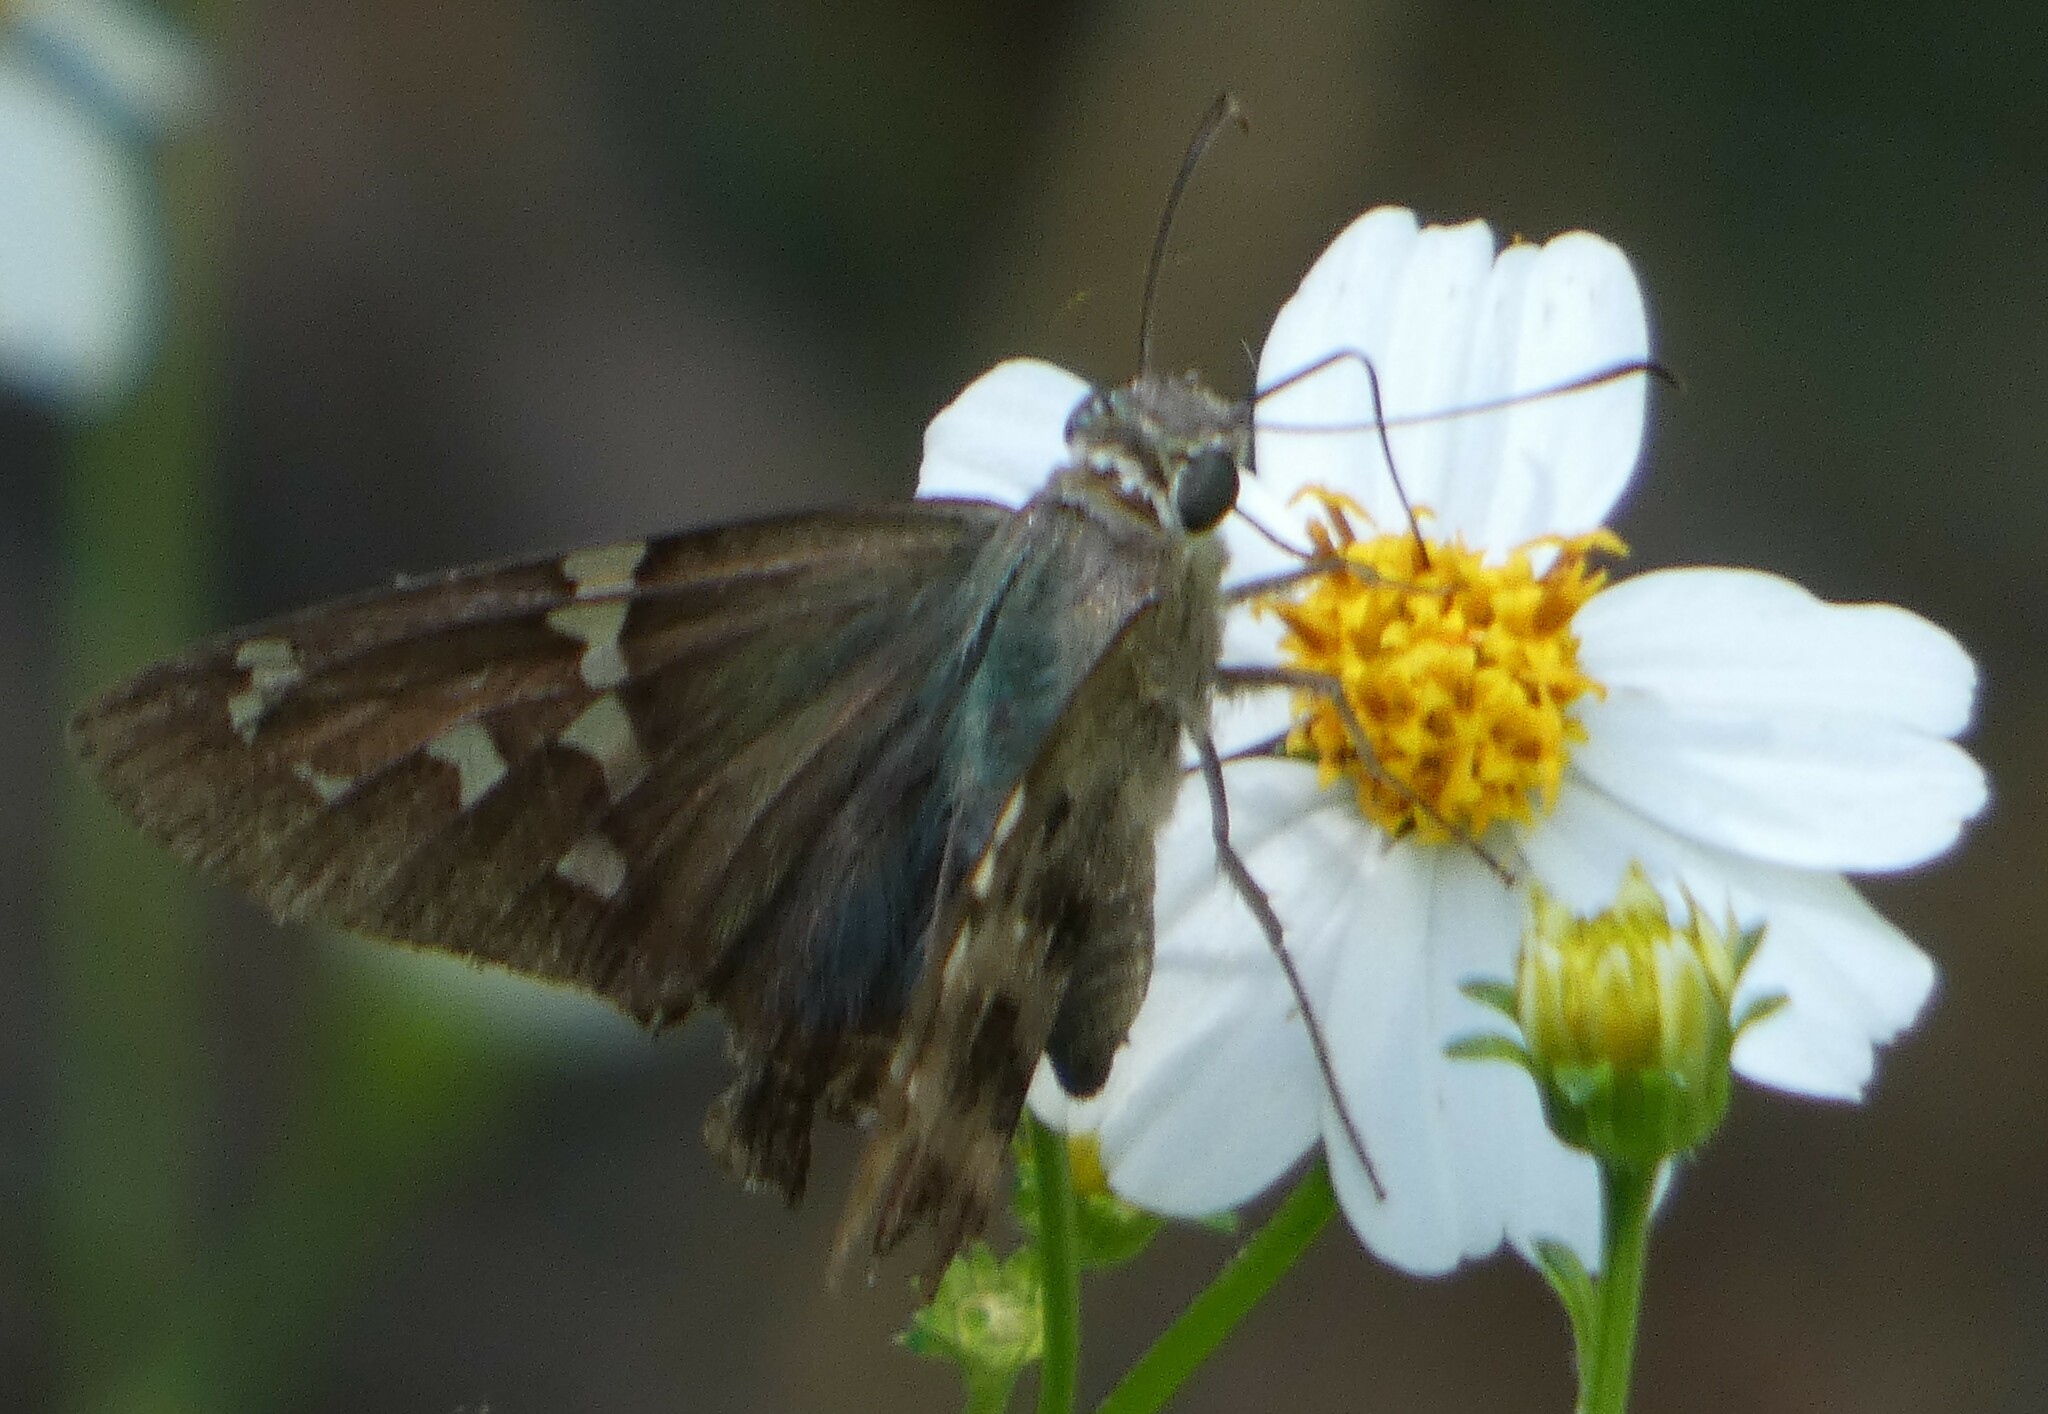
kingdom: Animalia
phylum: Arthropoda
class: Insecta
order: Lepidoptera
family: Hesperiidae
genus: Urbanus
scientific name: Urbanus proteus
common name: Long-tailed skipper
